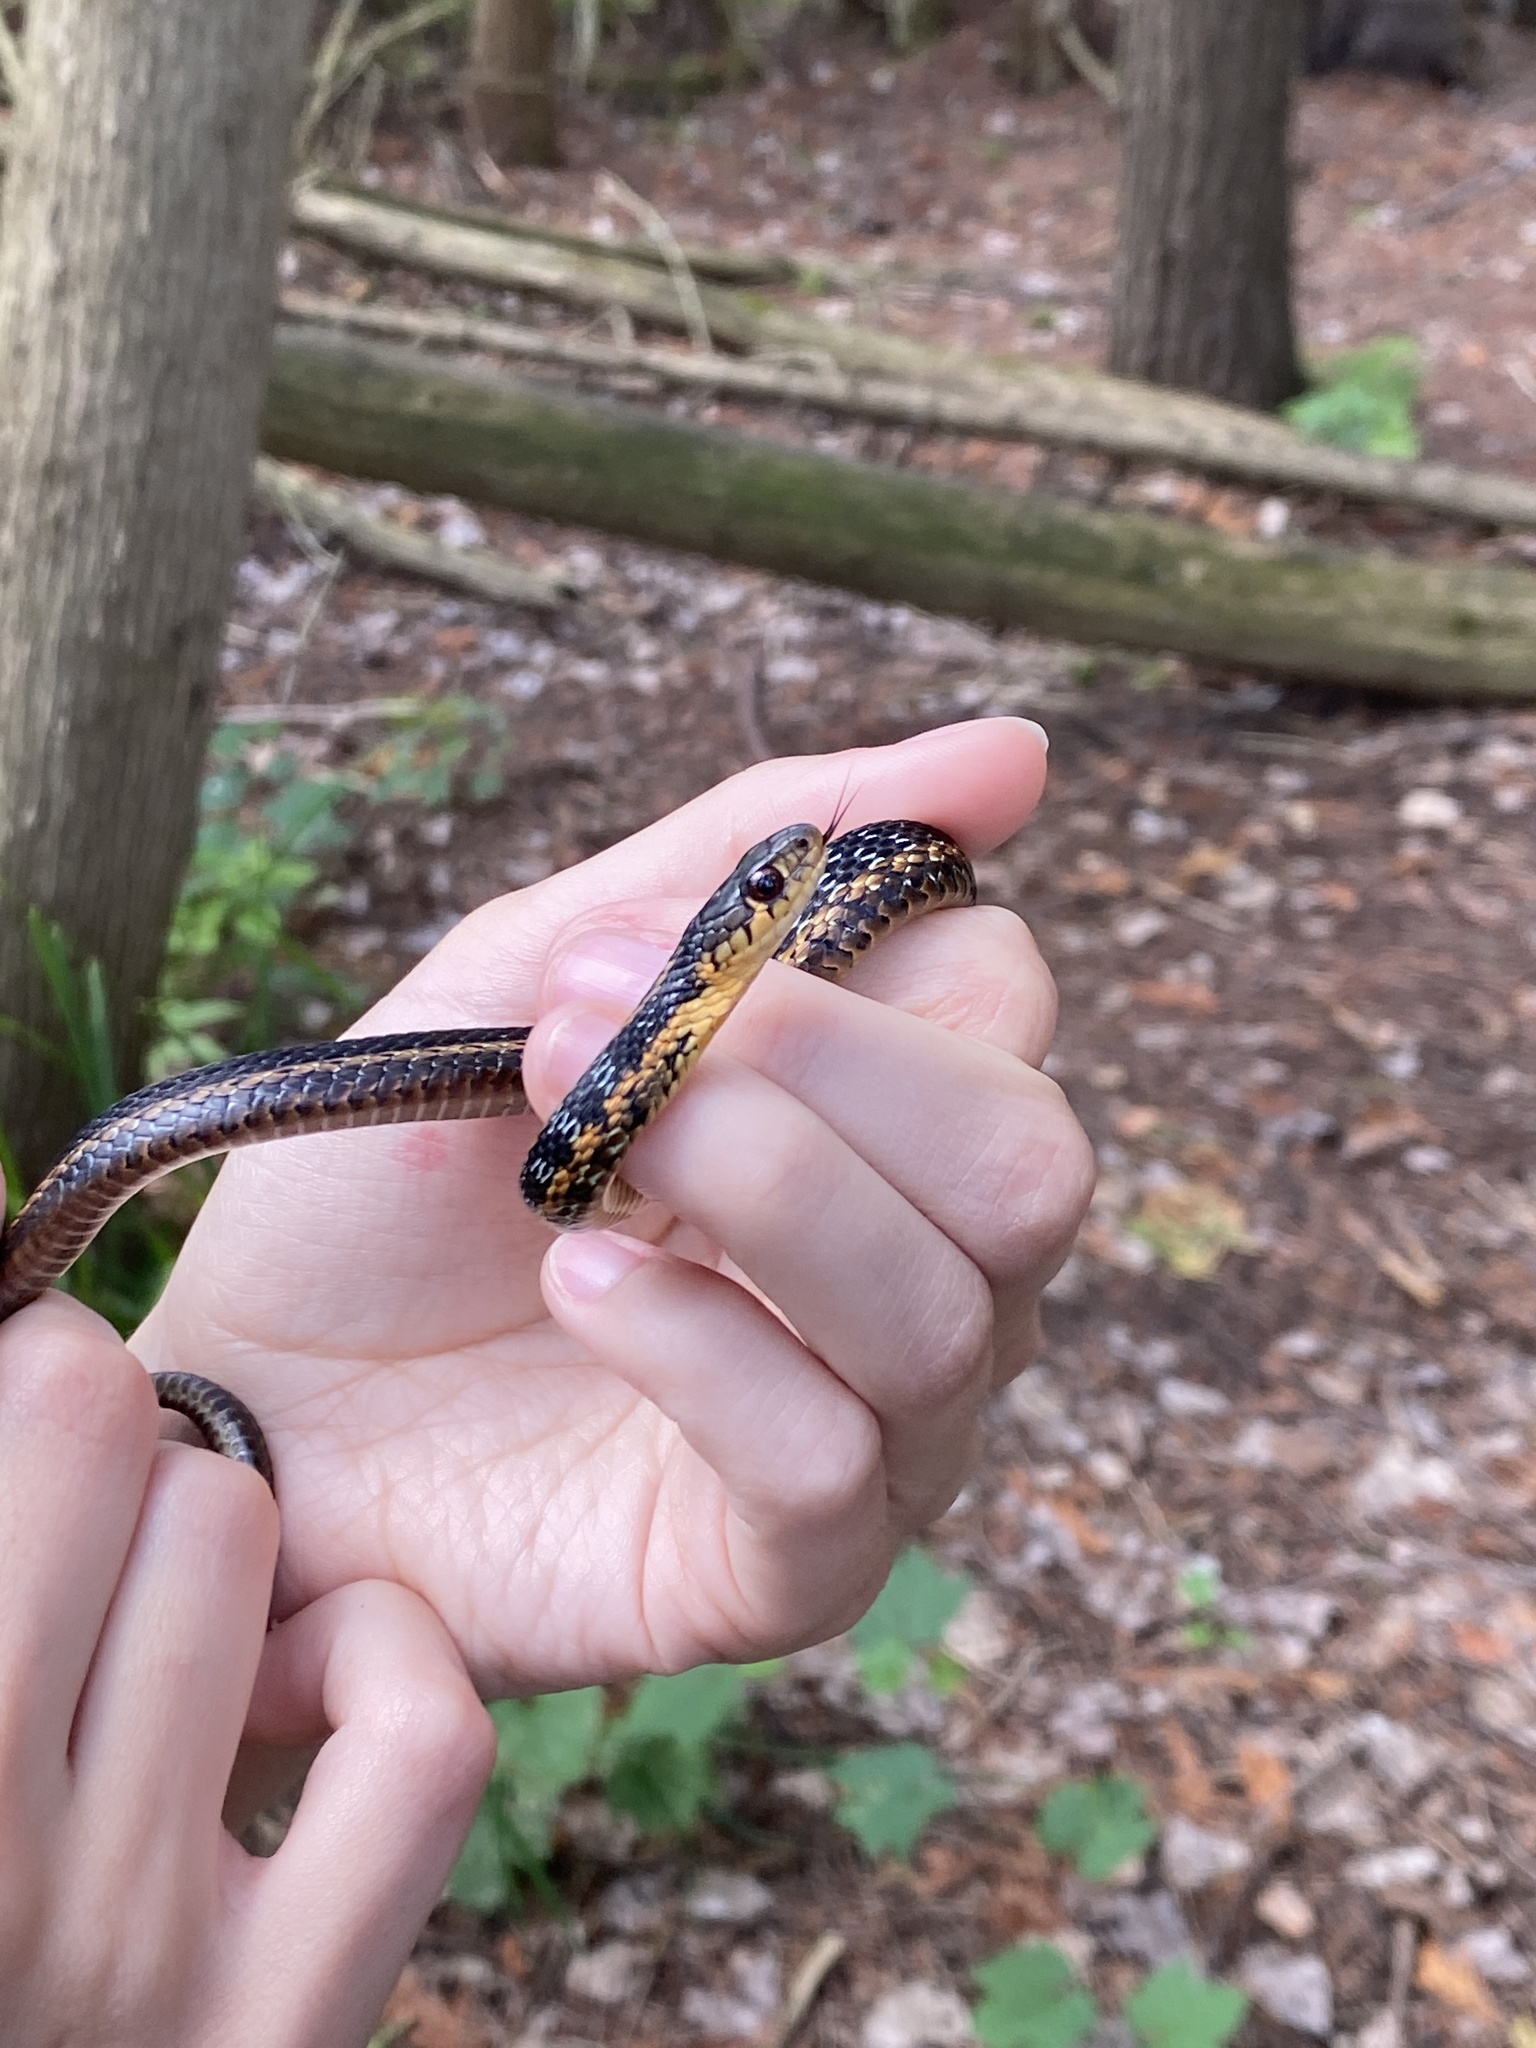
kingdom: Animalia
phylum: Chordata
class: Squamata
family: Colubridae
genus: Thamnophis
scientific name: Thamnophis sirtalis
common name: Common garter snake
